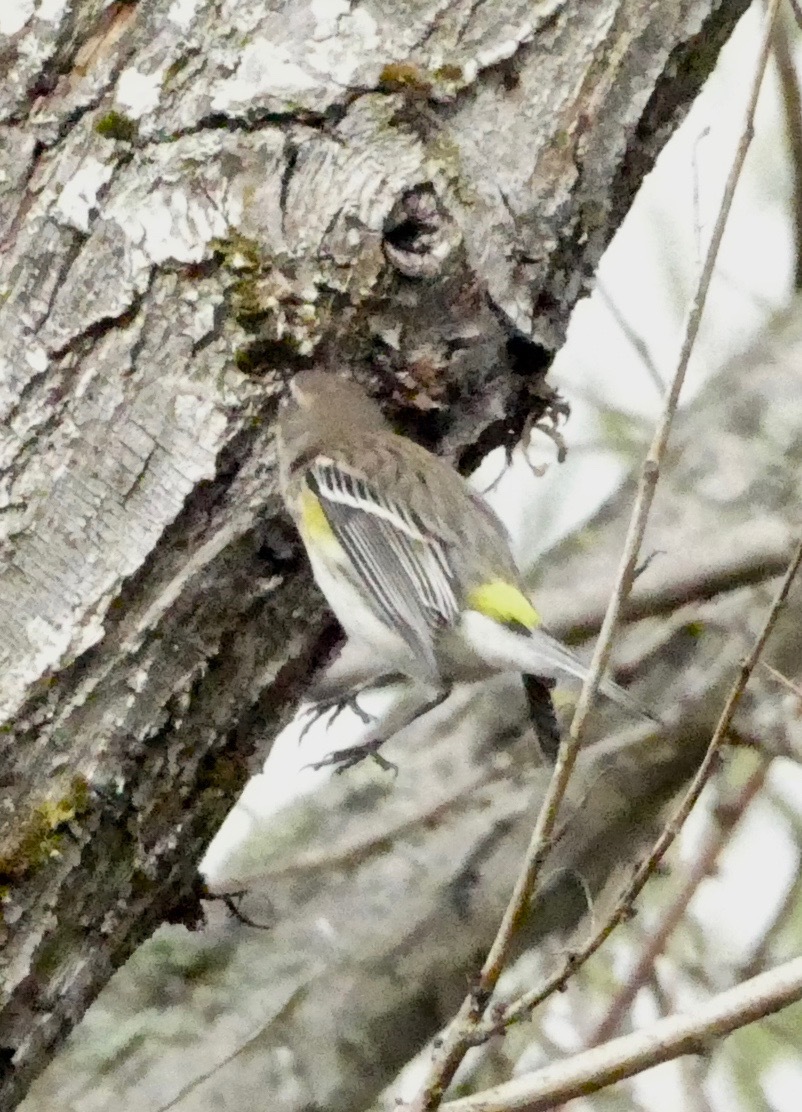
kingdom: Animalia
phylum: Chordata
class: Aves
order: Passeriformes
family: Parulidae
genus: Setophaga
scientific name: Setophaga coronata
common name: Myrtle warbler
